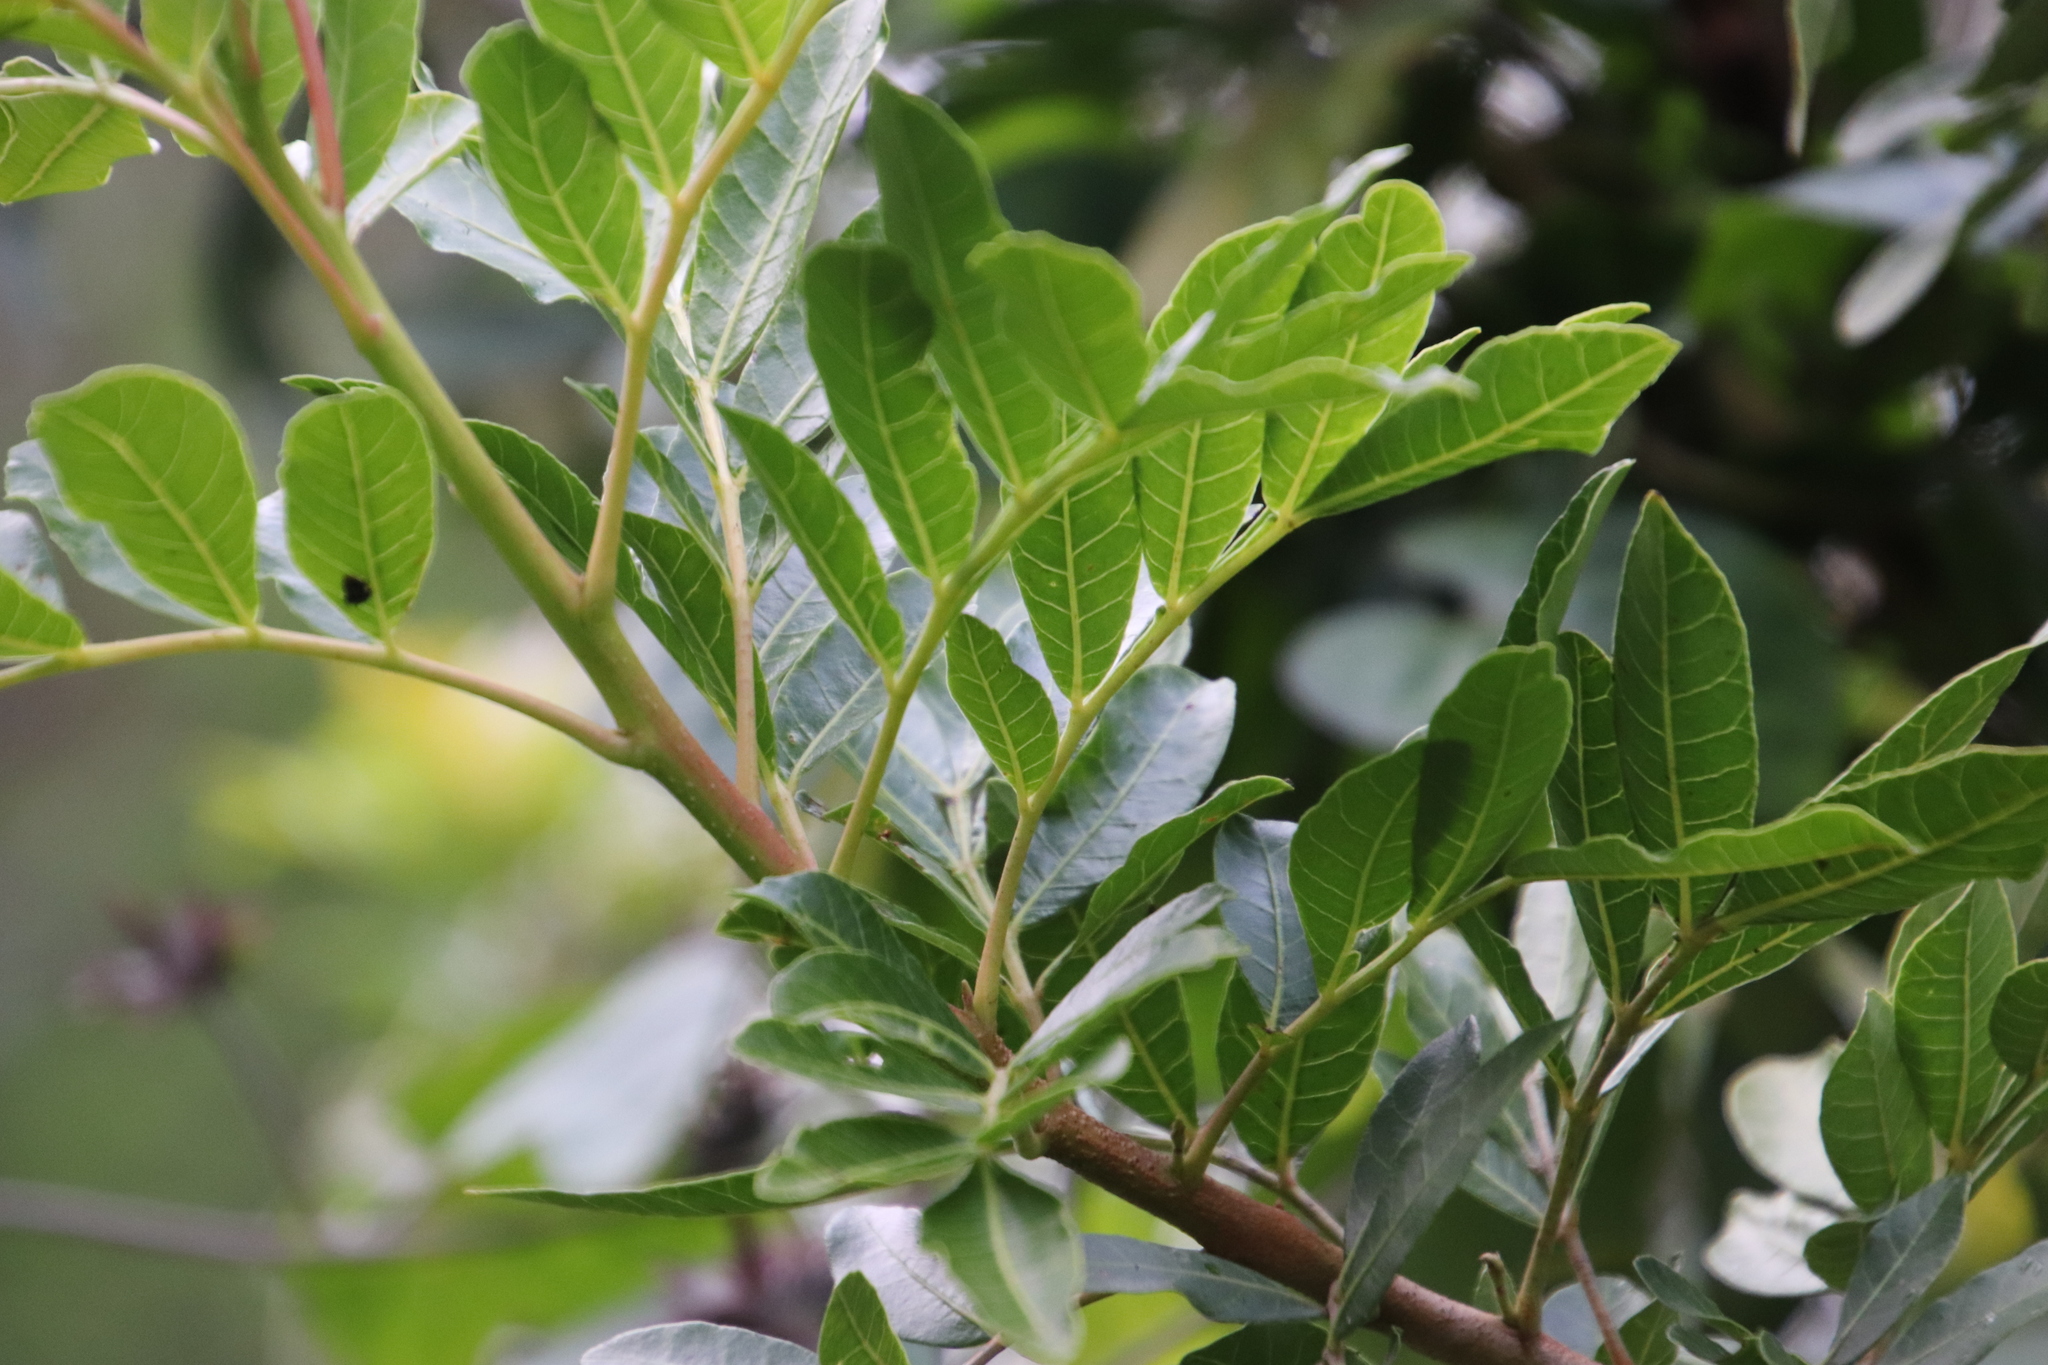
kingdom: Plantae
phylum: Tracheophyta
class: Magnoliopsida
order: Sapindales
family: Anacardiaceae
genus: Schinus
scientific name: Schinus terebinthifolia
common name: Brazilian peppertree
